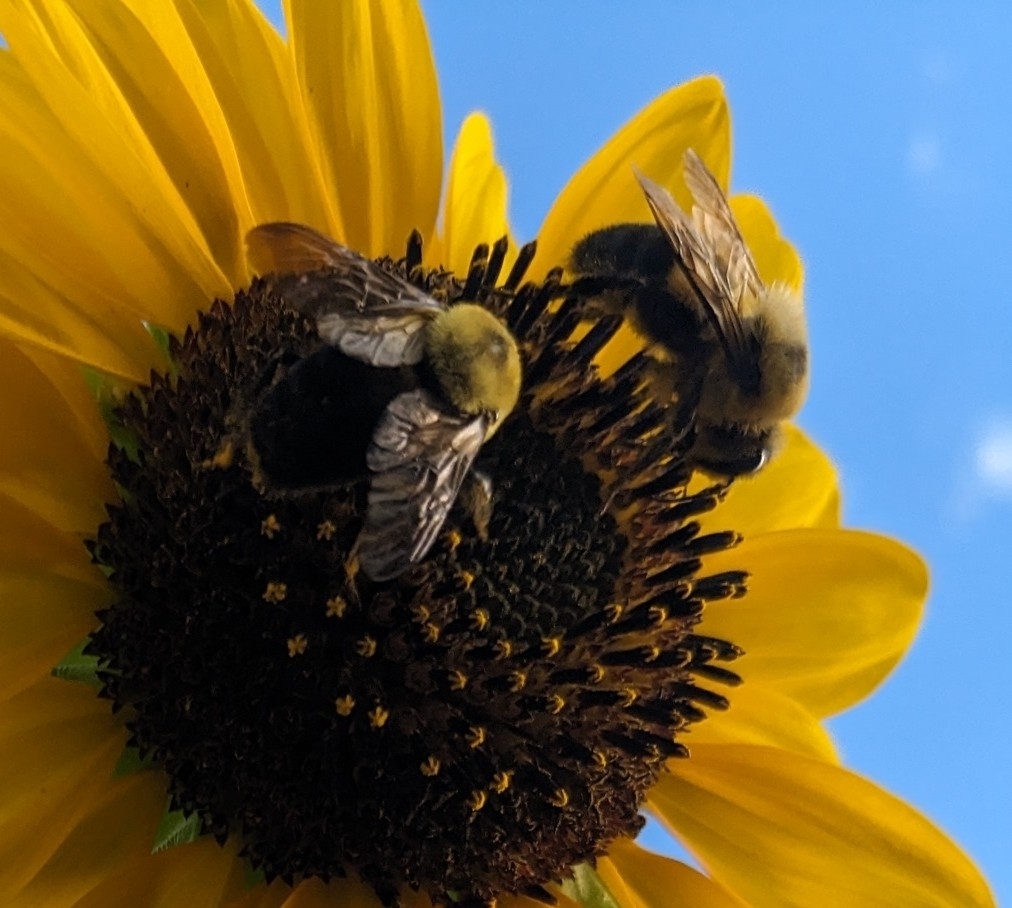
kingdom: Animalia
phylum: Arthropoda
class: Insecta
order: Hymenoptera
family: Apidae
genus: Bombus
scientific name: Bombus griseocollis
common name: Brown-belted bumble bee
